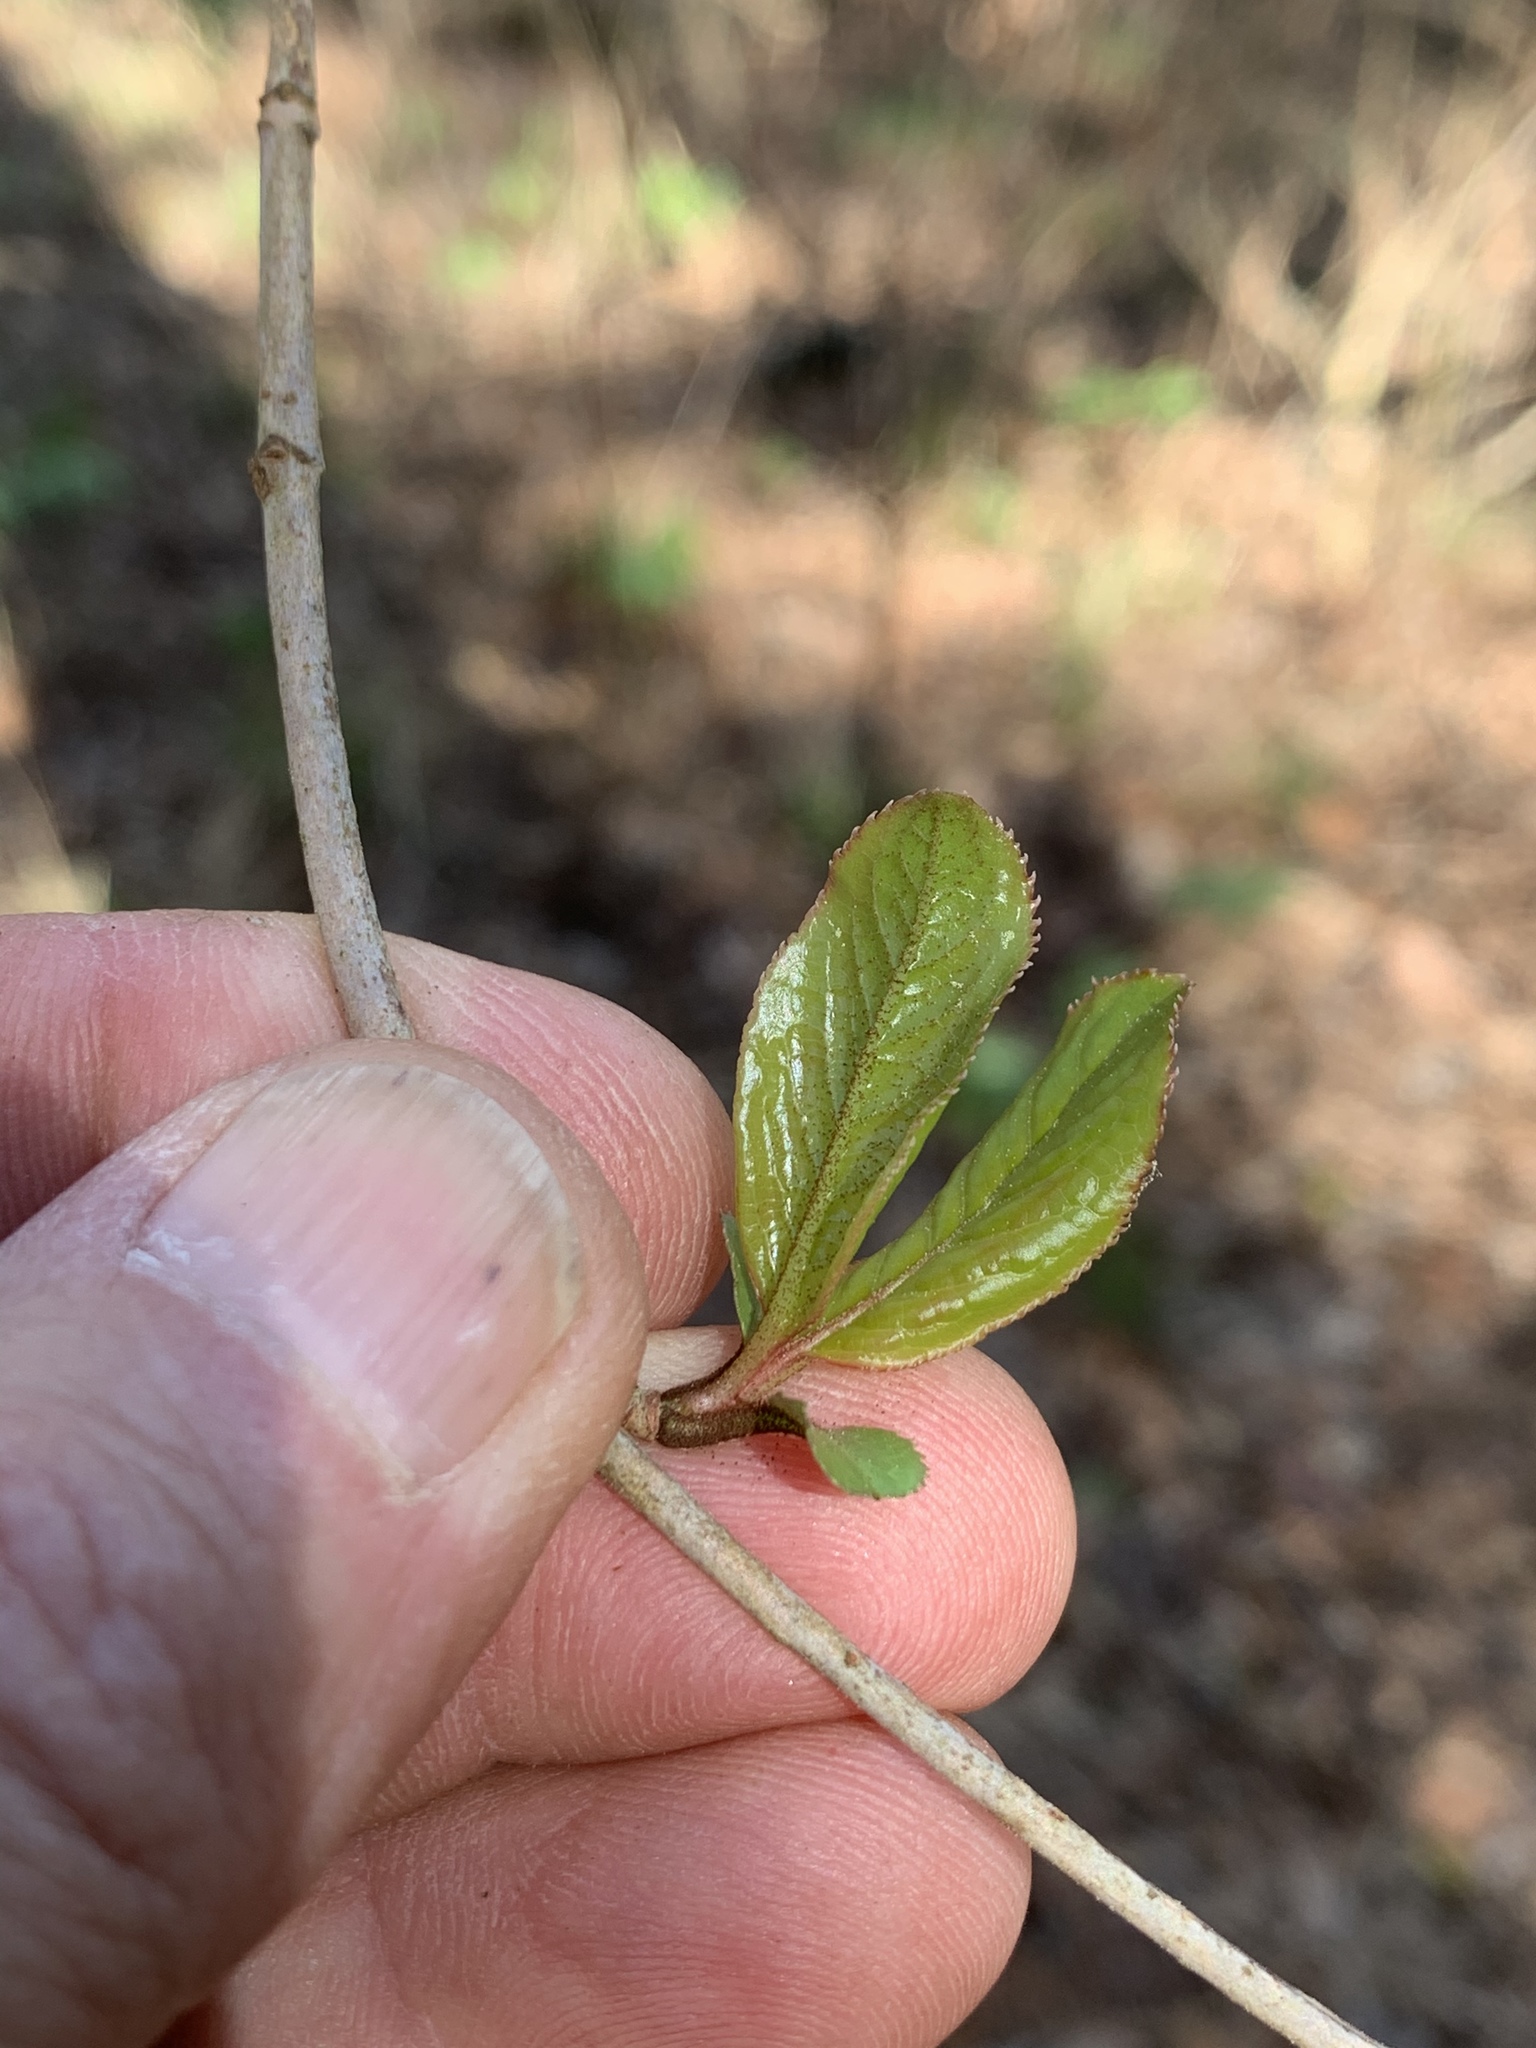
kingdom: Plantae
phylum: Tracheophyta
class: Magnoliopsida
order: Dipsacales
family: Viburnaceae
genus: Viburnum
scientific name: Viburnum rufidulum
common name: Blue haw
